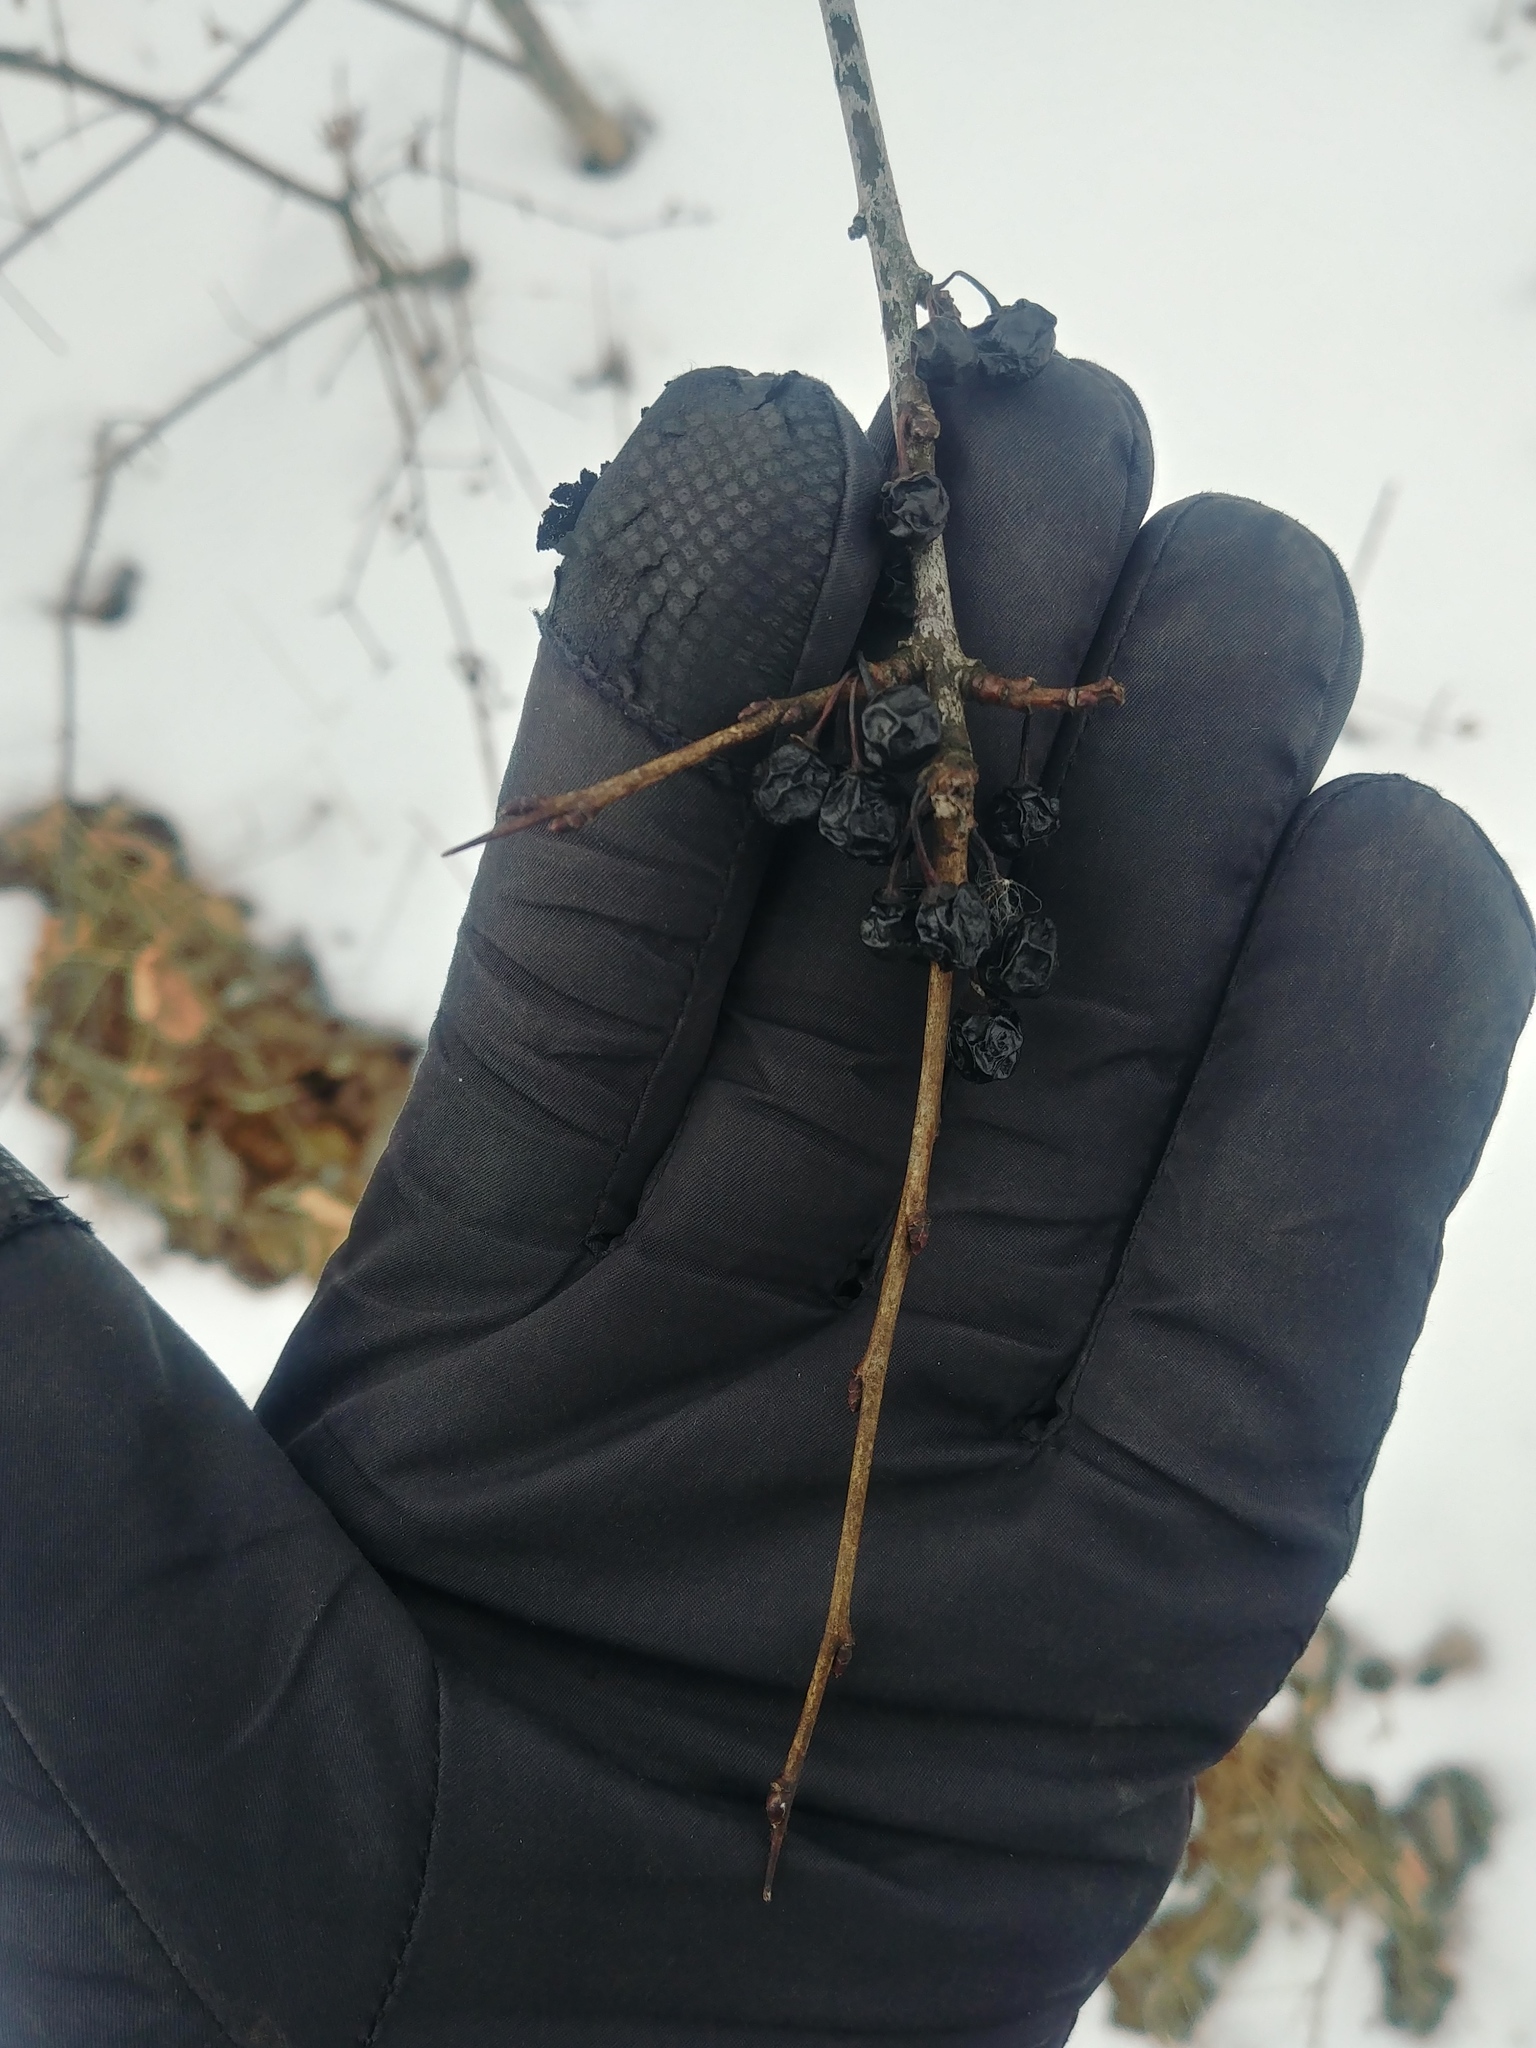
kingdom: Plantae
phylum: Tracheophyta
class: Magnoliopsida
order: Rosales
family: Rhamnaceae
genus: Rhamnus
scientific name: Rhamnus cathartica
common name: Common buckthorn
